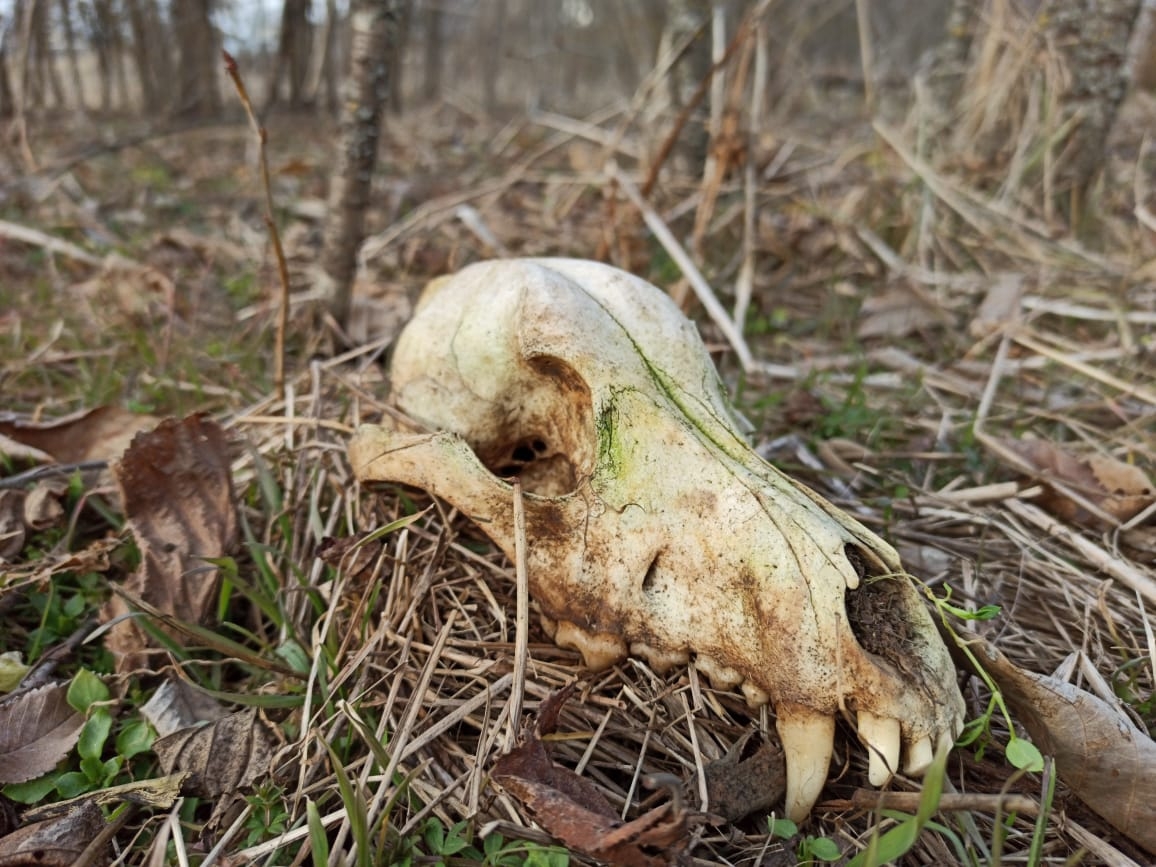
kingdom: Animalia
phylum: Chordata
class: Mammalia
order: Carnivora
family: Canidae
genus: Canis
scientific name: Canis lupus
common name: Gray wolf
